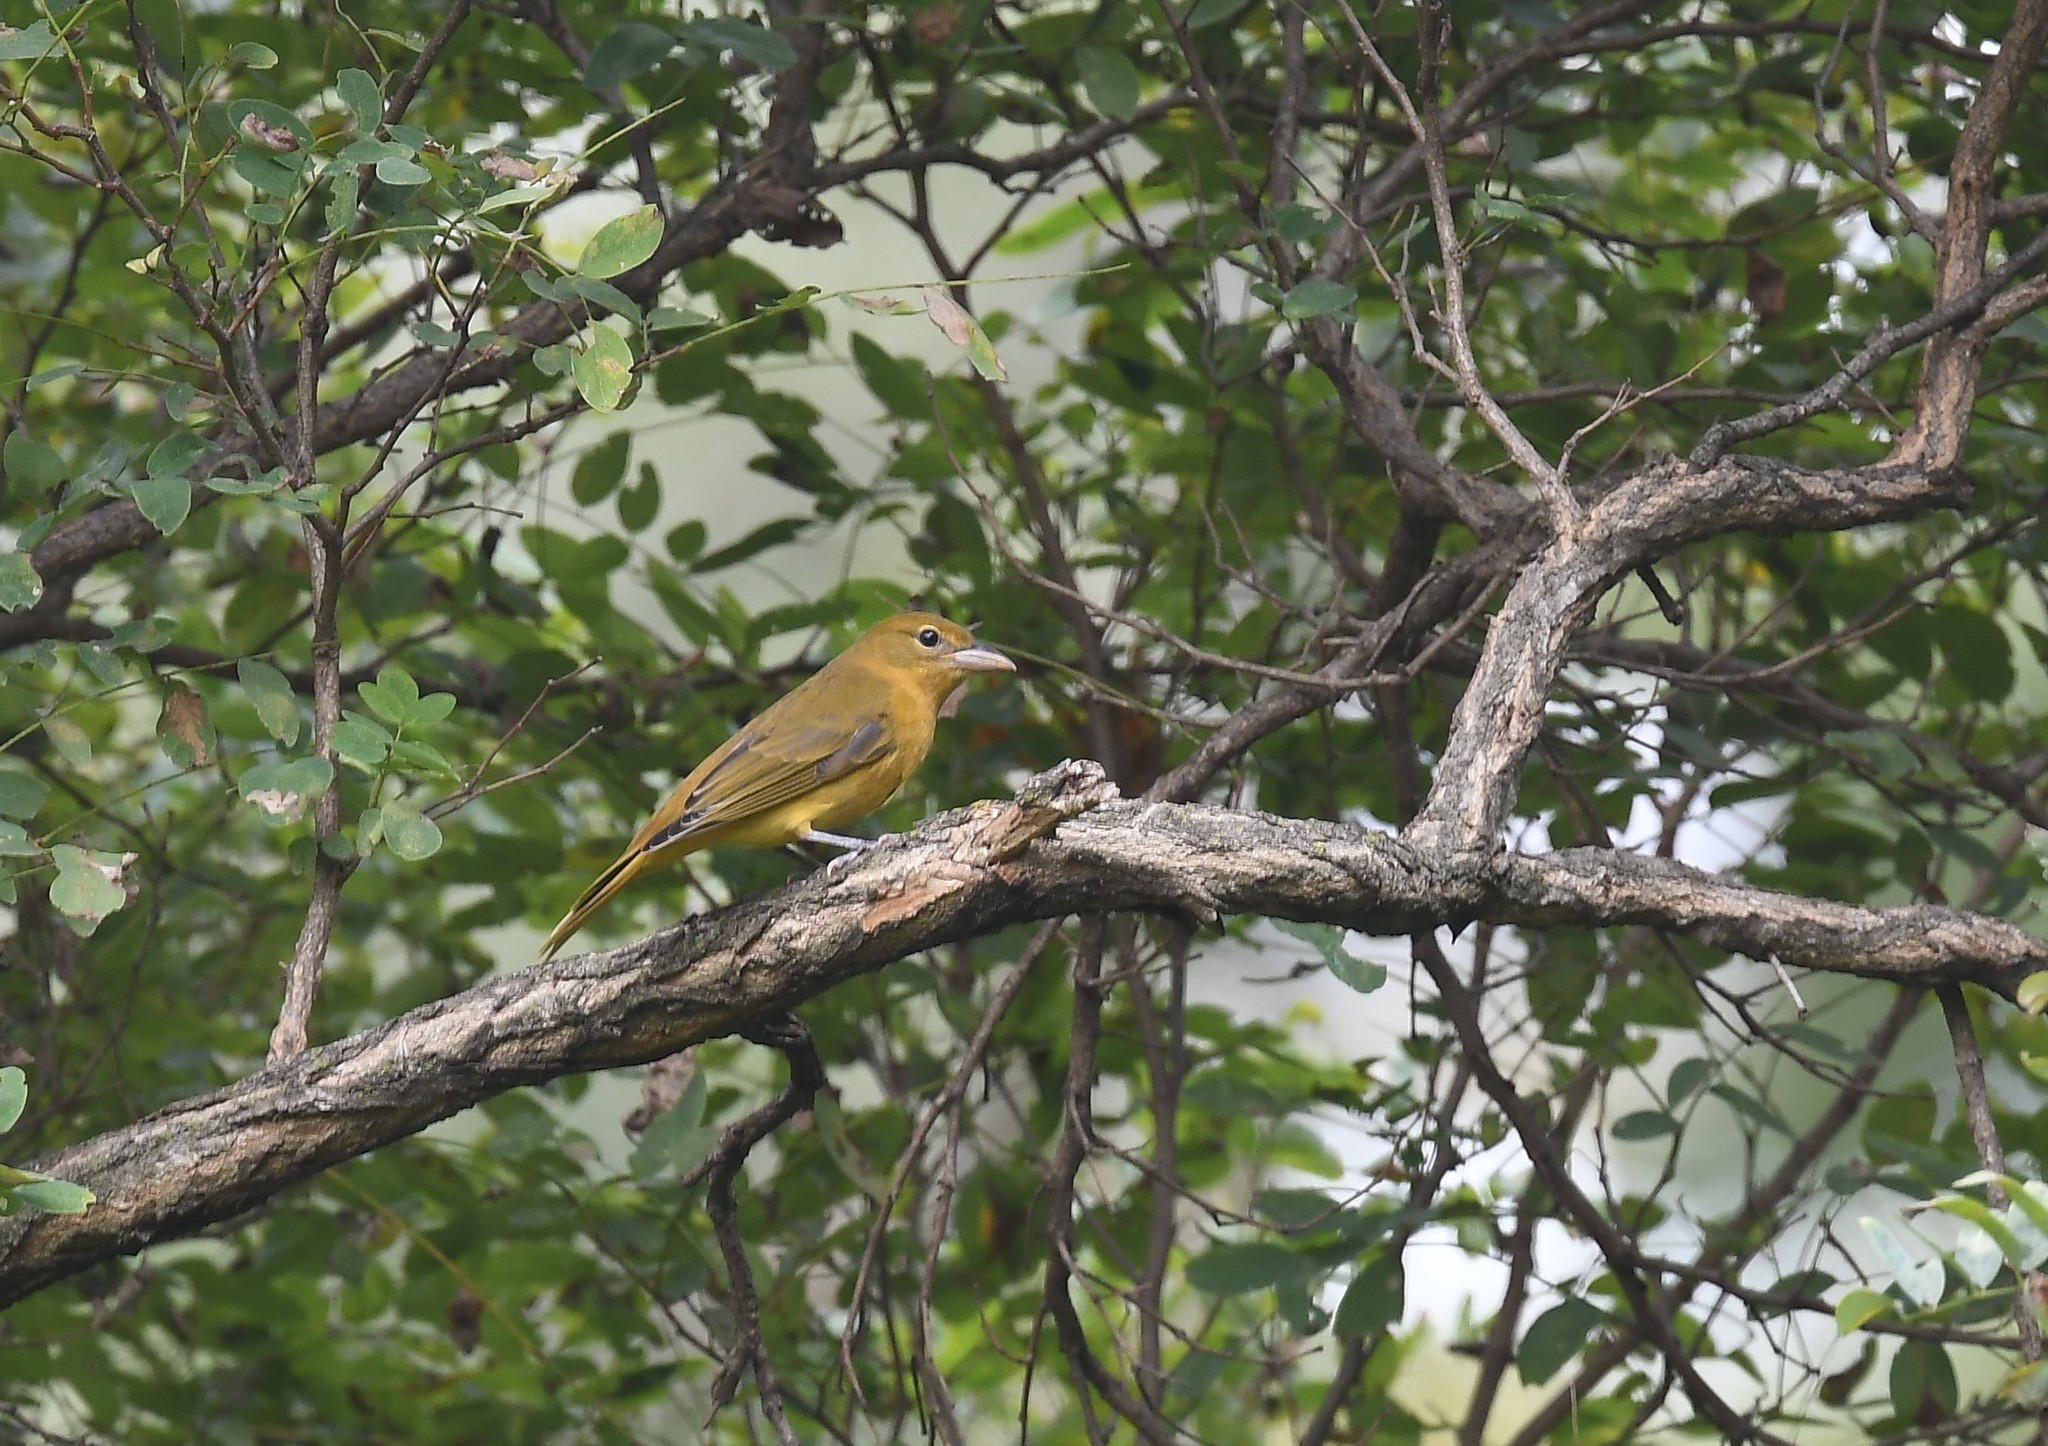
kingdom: Animalia
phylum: Chordata
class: Aves
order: Passeriformes
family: Cardinalidae
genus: Piranga
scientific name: Piranga rubra
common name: Summer tanager
